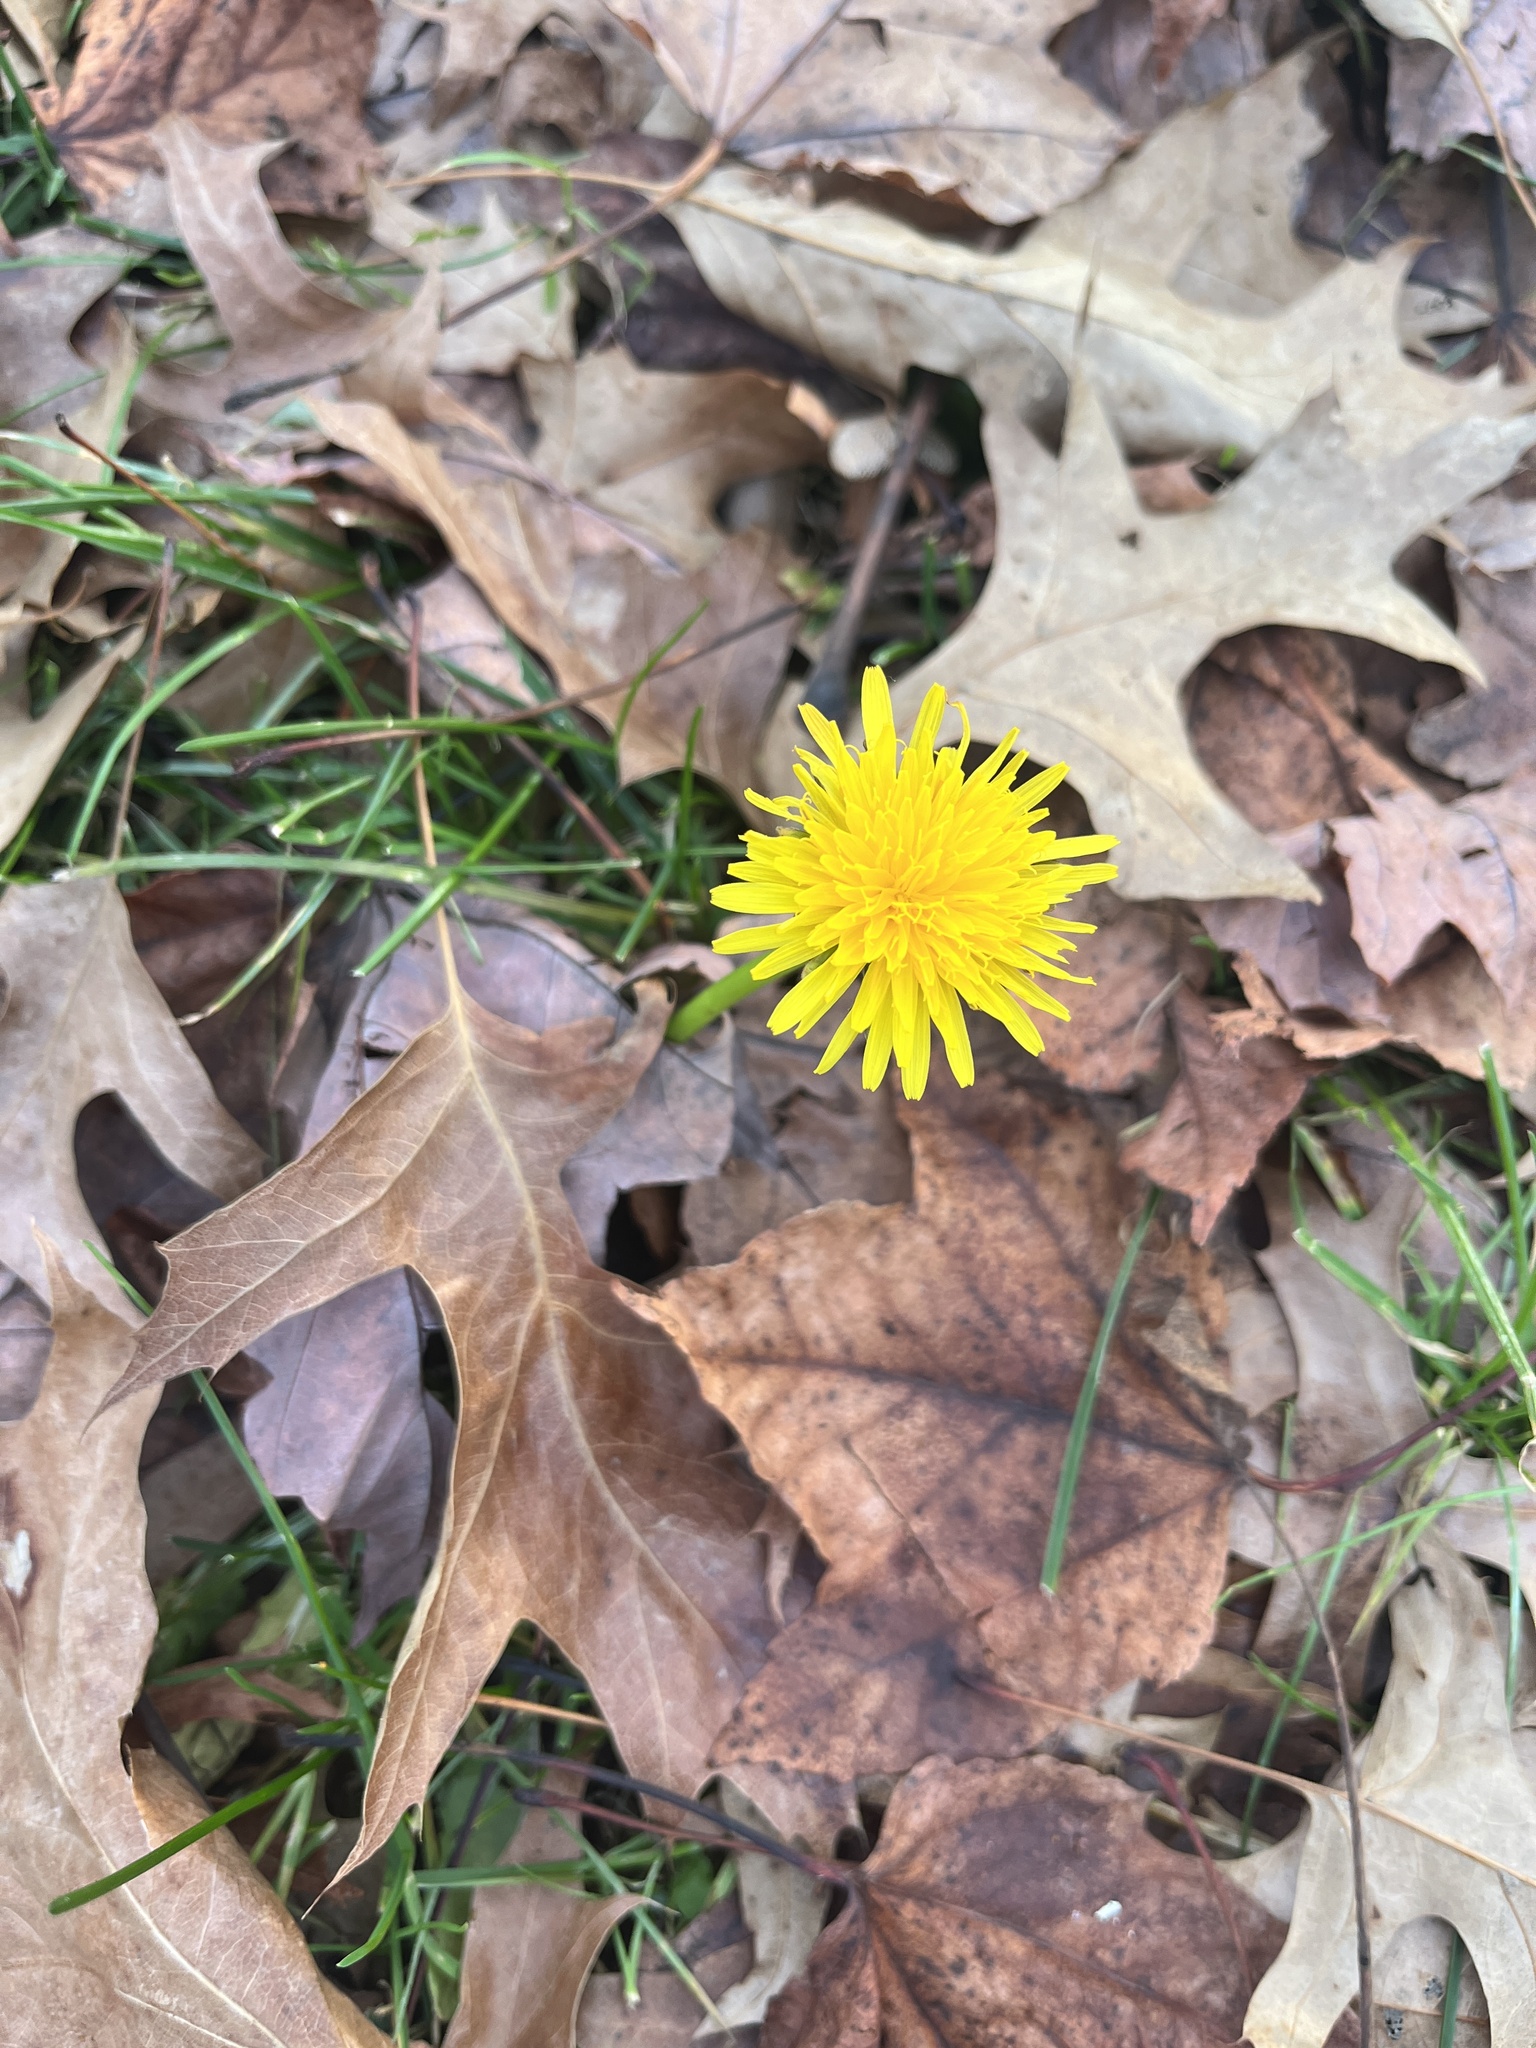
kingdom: Plantae
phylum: Tracheophyta
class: Magnoliopsida
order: Asterales
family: Asteraceae
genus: Taraxacum
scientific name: Taraxacum officinale
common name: Common dandelion
